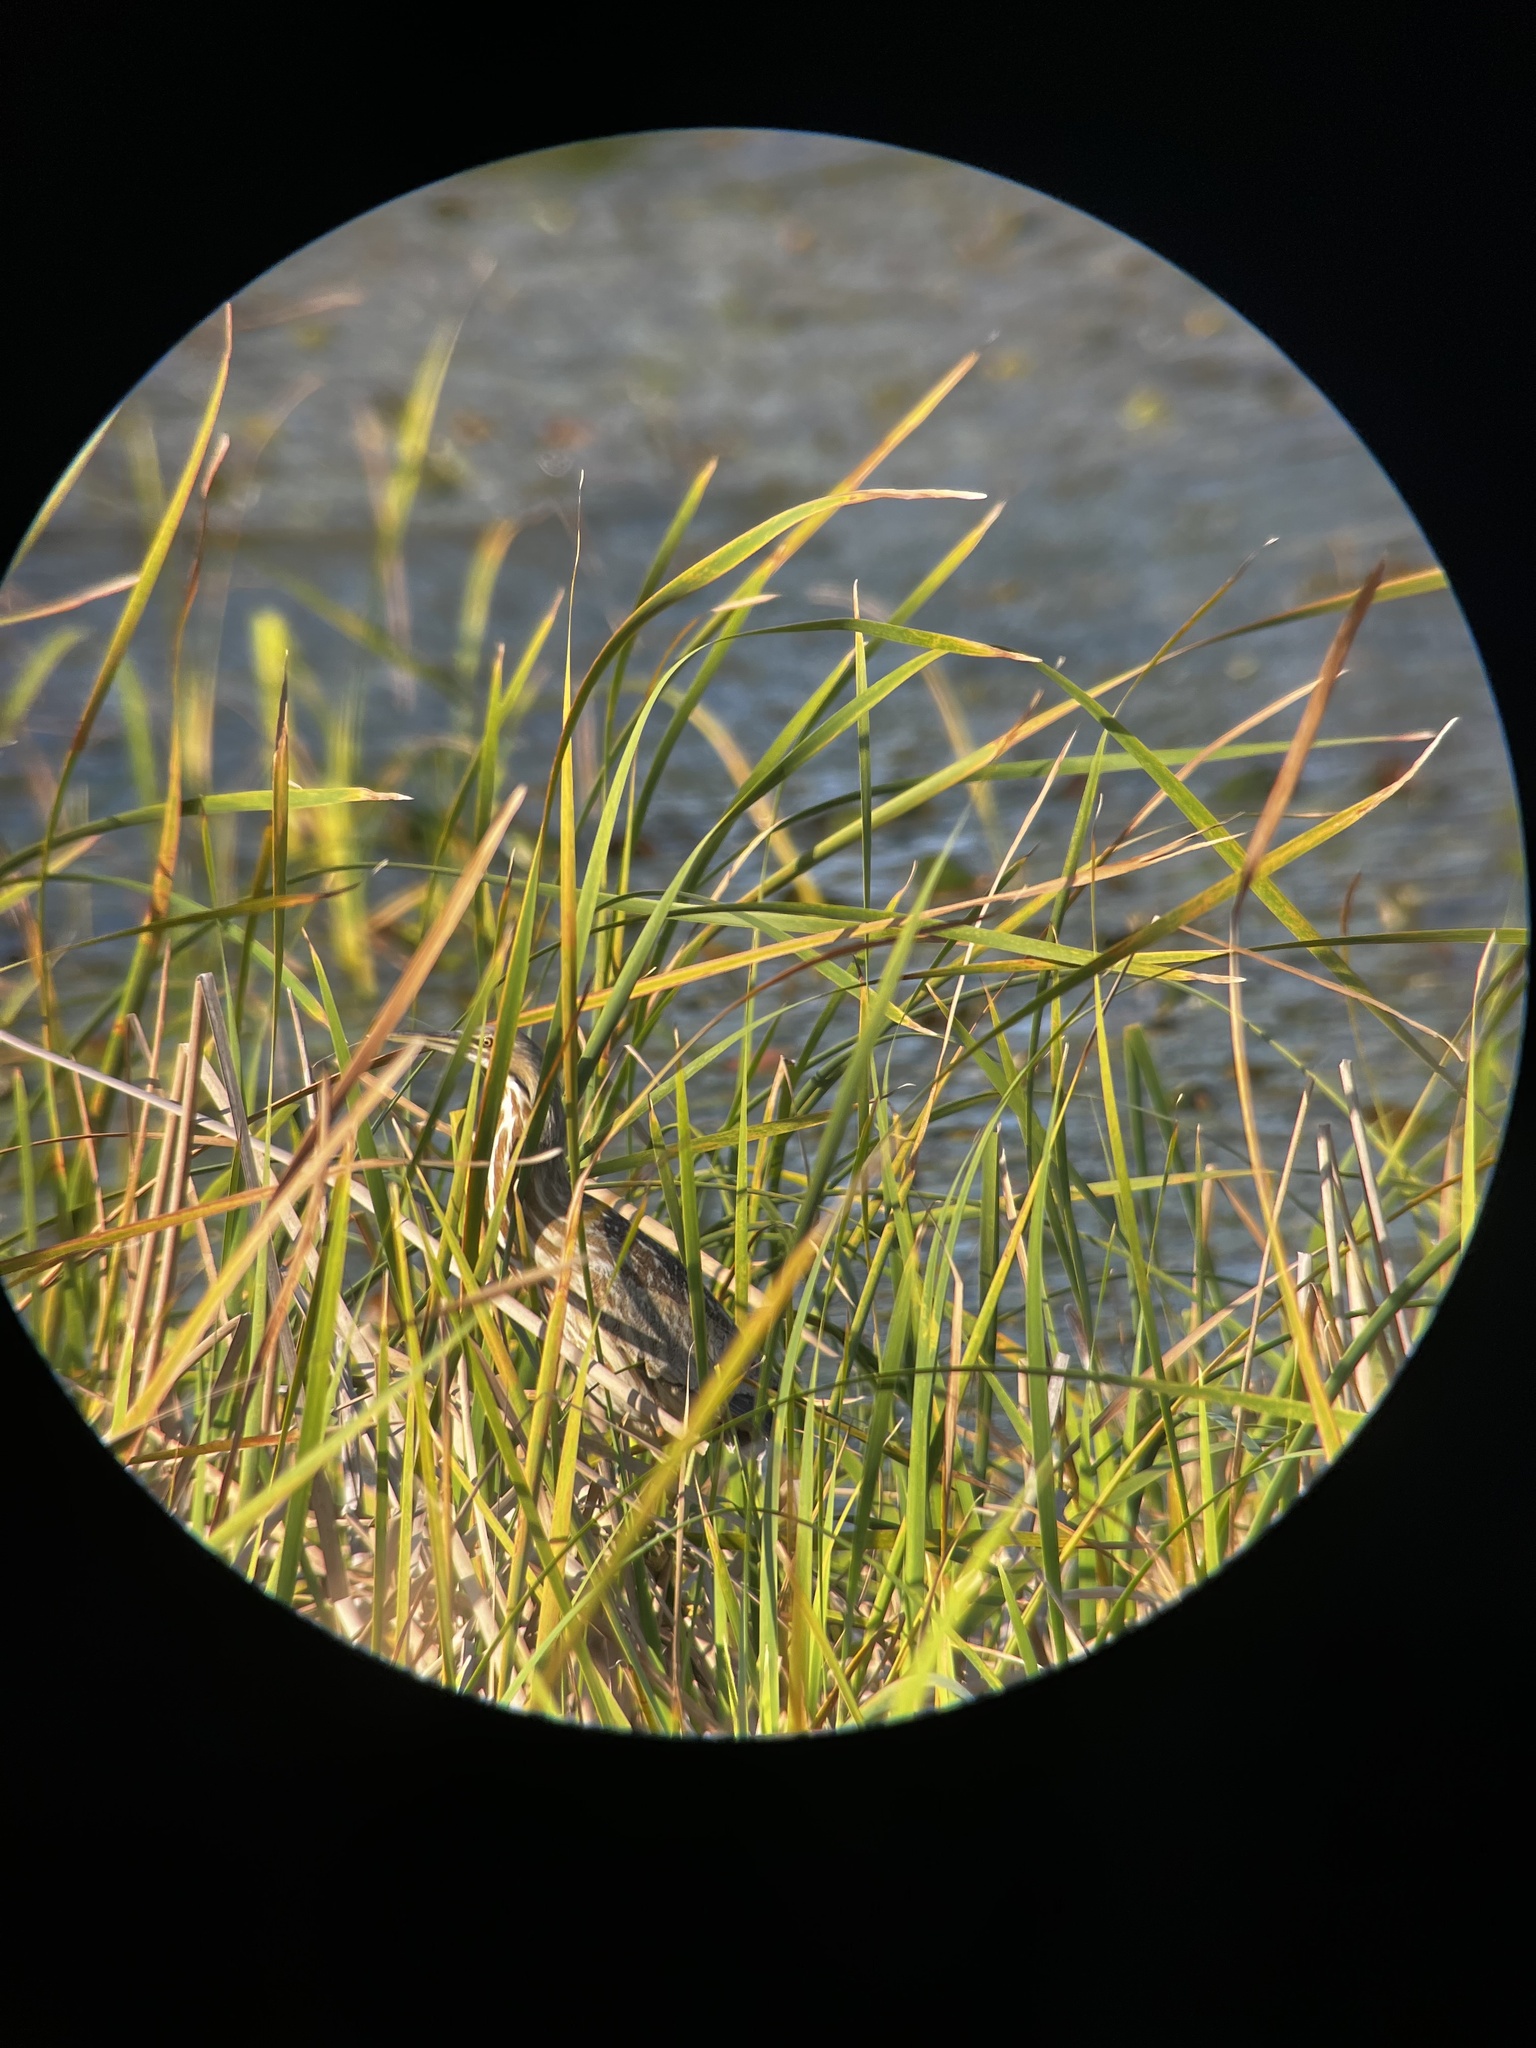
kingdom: Animalia
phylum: Chordata
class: Aves
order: Pelecaniformes
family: Ardeidae
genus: Botaurus
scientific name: Botaurus lentiginosus
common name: American bittern
